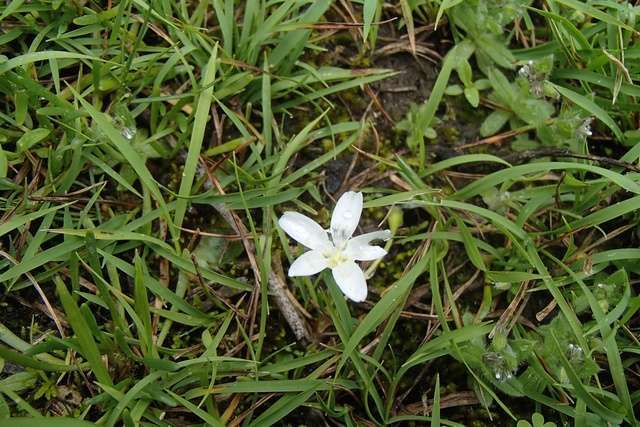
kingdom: Plantae
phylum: Tracheophyta
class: Magnoliopsida
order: Caryophyllales
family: Montiaceae
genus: Montia
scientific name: Montia australasica
